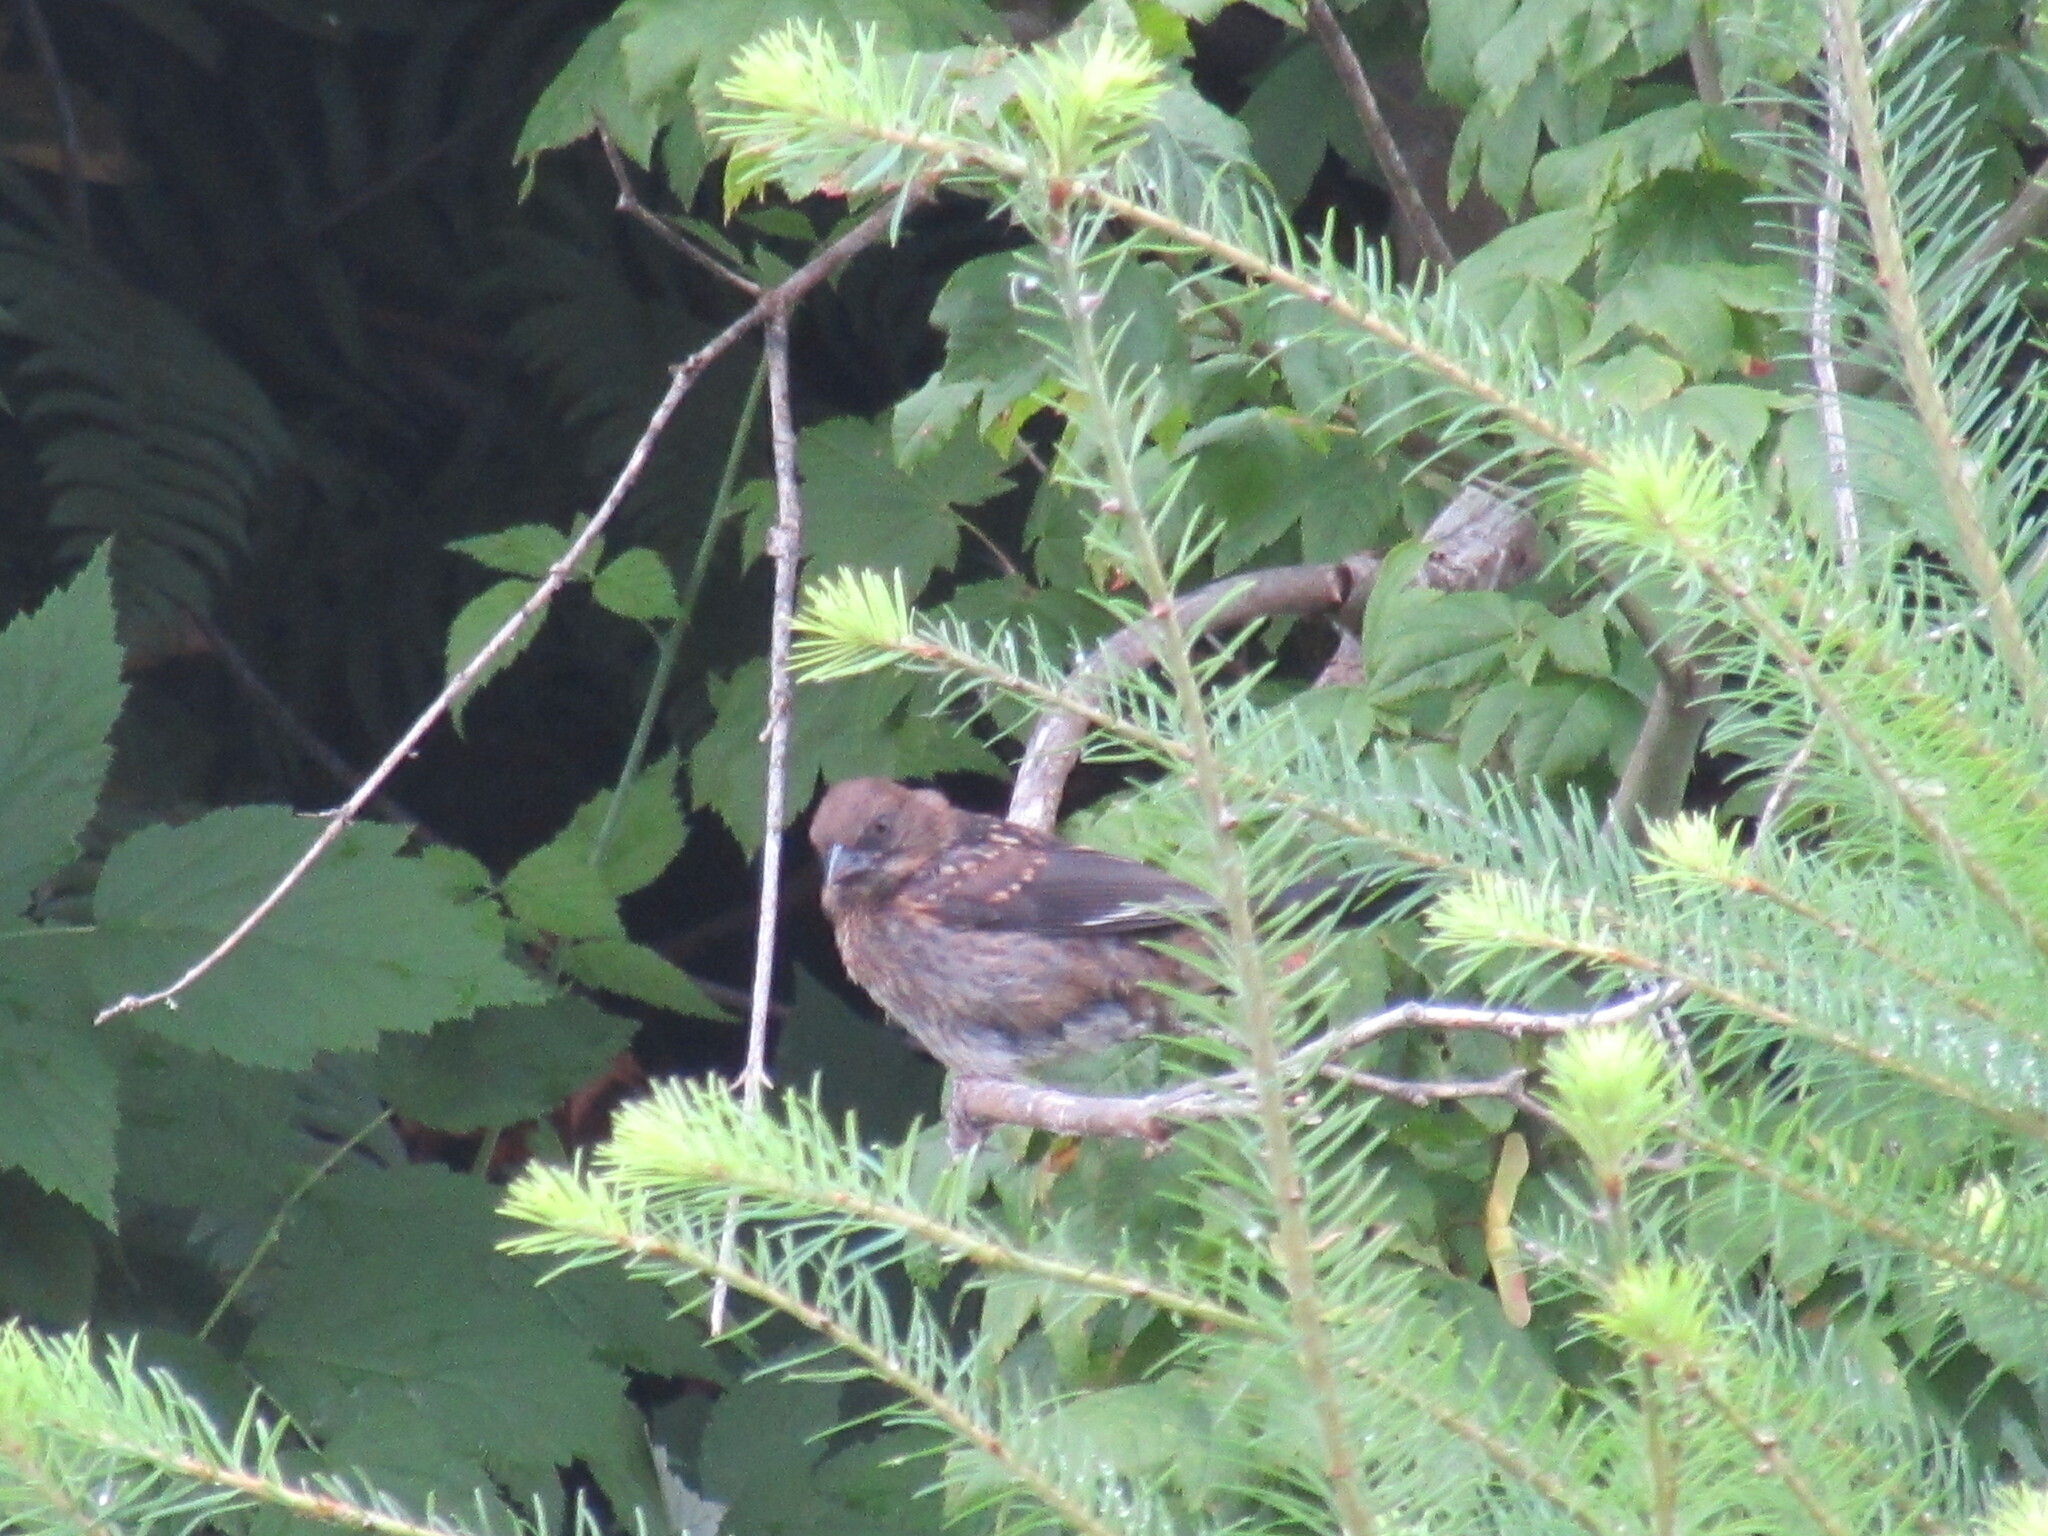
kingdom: Animalia
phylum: Chordata
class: Aves
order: Passeriformes
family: Passerellidae
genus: Pipilo
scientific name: Pipilo maculatus
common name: Spotted towhee
